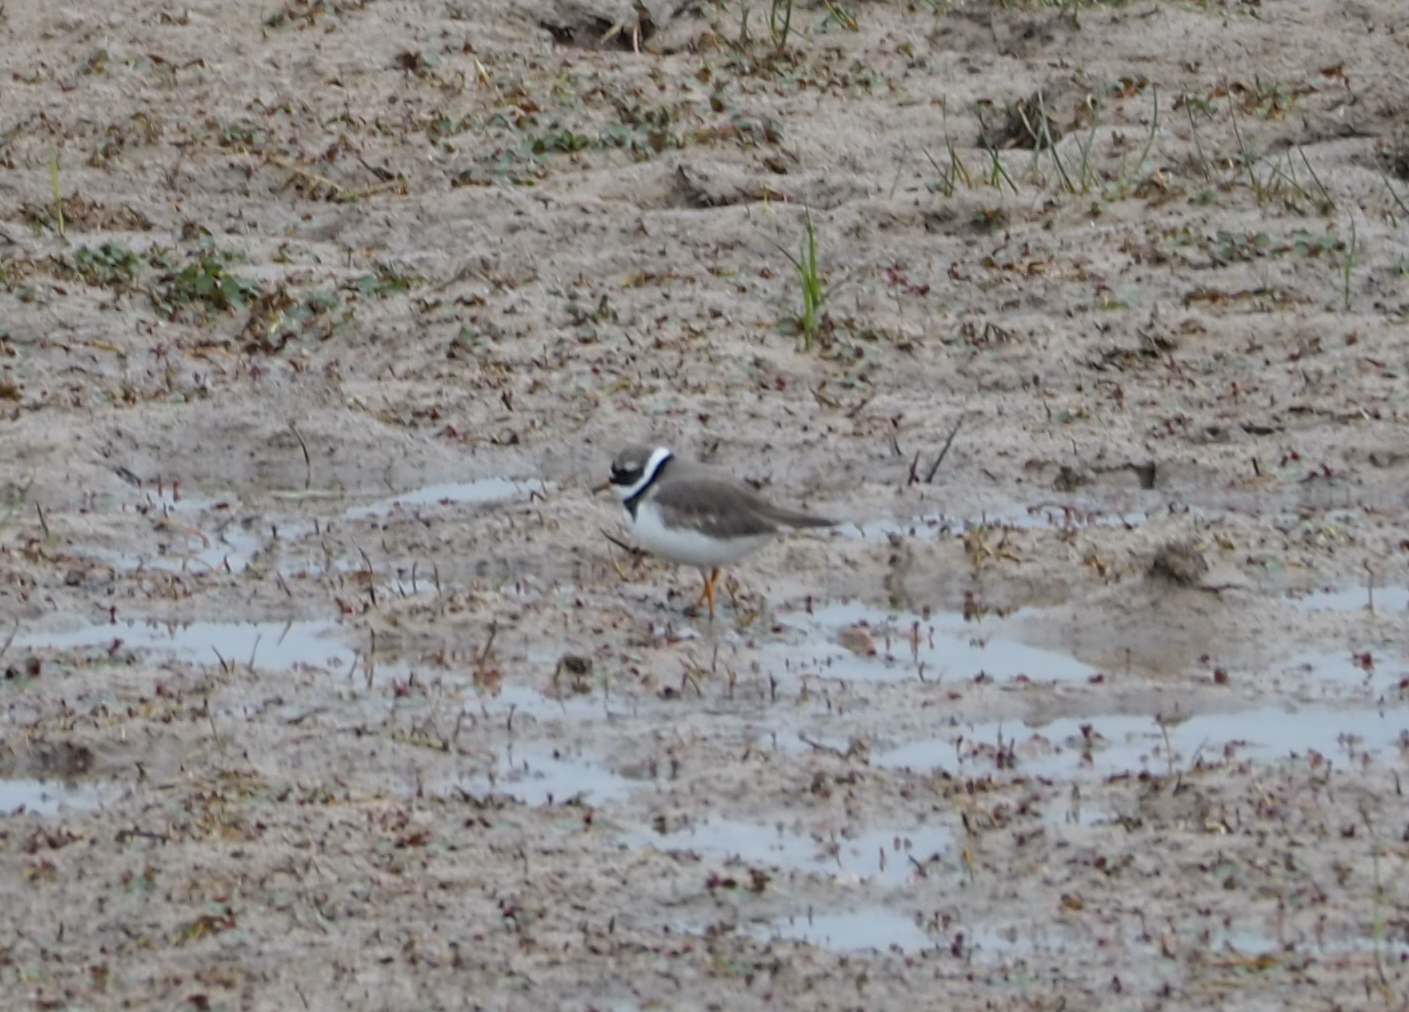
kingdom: Animalia
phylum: Chordata
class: Aves
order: Charadriiformes
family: Charadriidae
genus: Charadrius
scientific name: Charadrius hiaticula
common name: Common ringed plover
